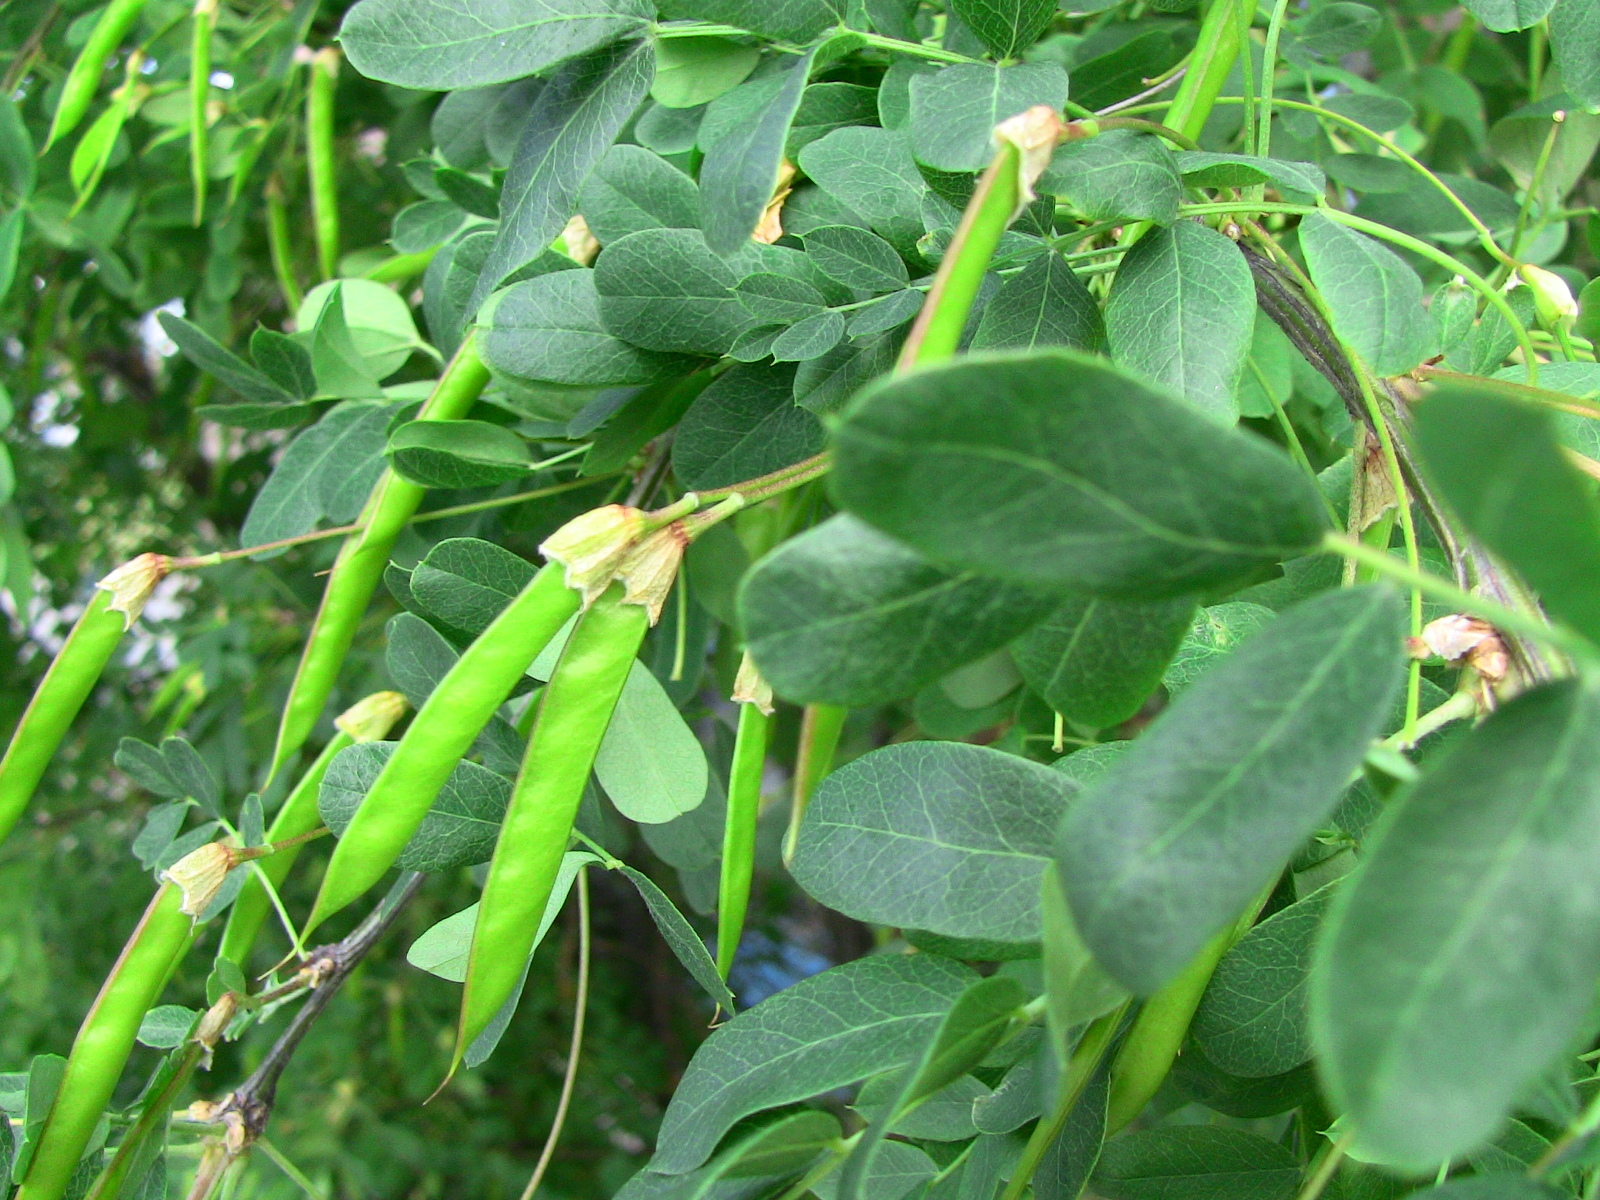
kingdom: Plantae
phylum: Tracheophyta
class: Magnoliopsida
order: Fabales
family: Fabaceae
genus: Caragana
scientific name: Caragana arborescens
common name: Siberian peashrub
